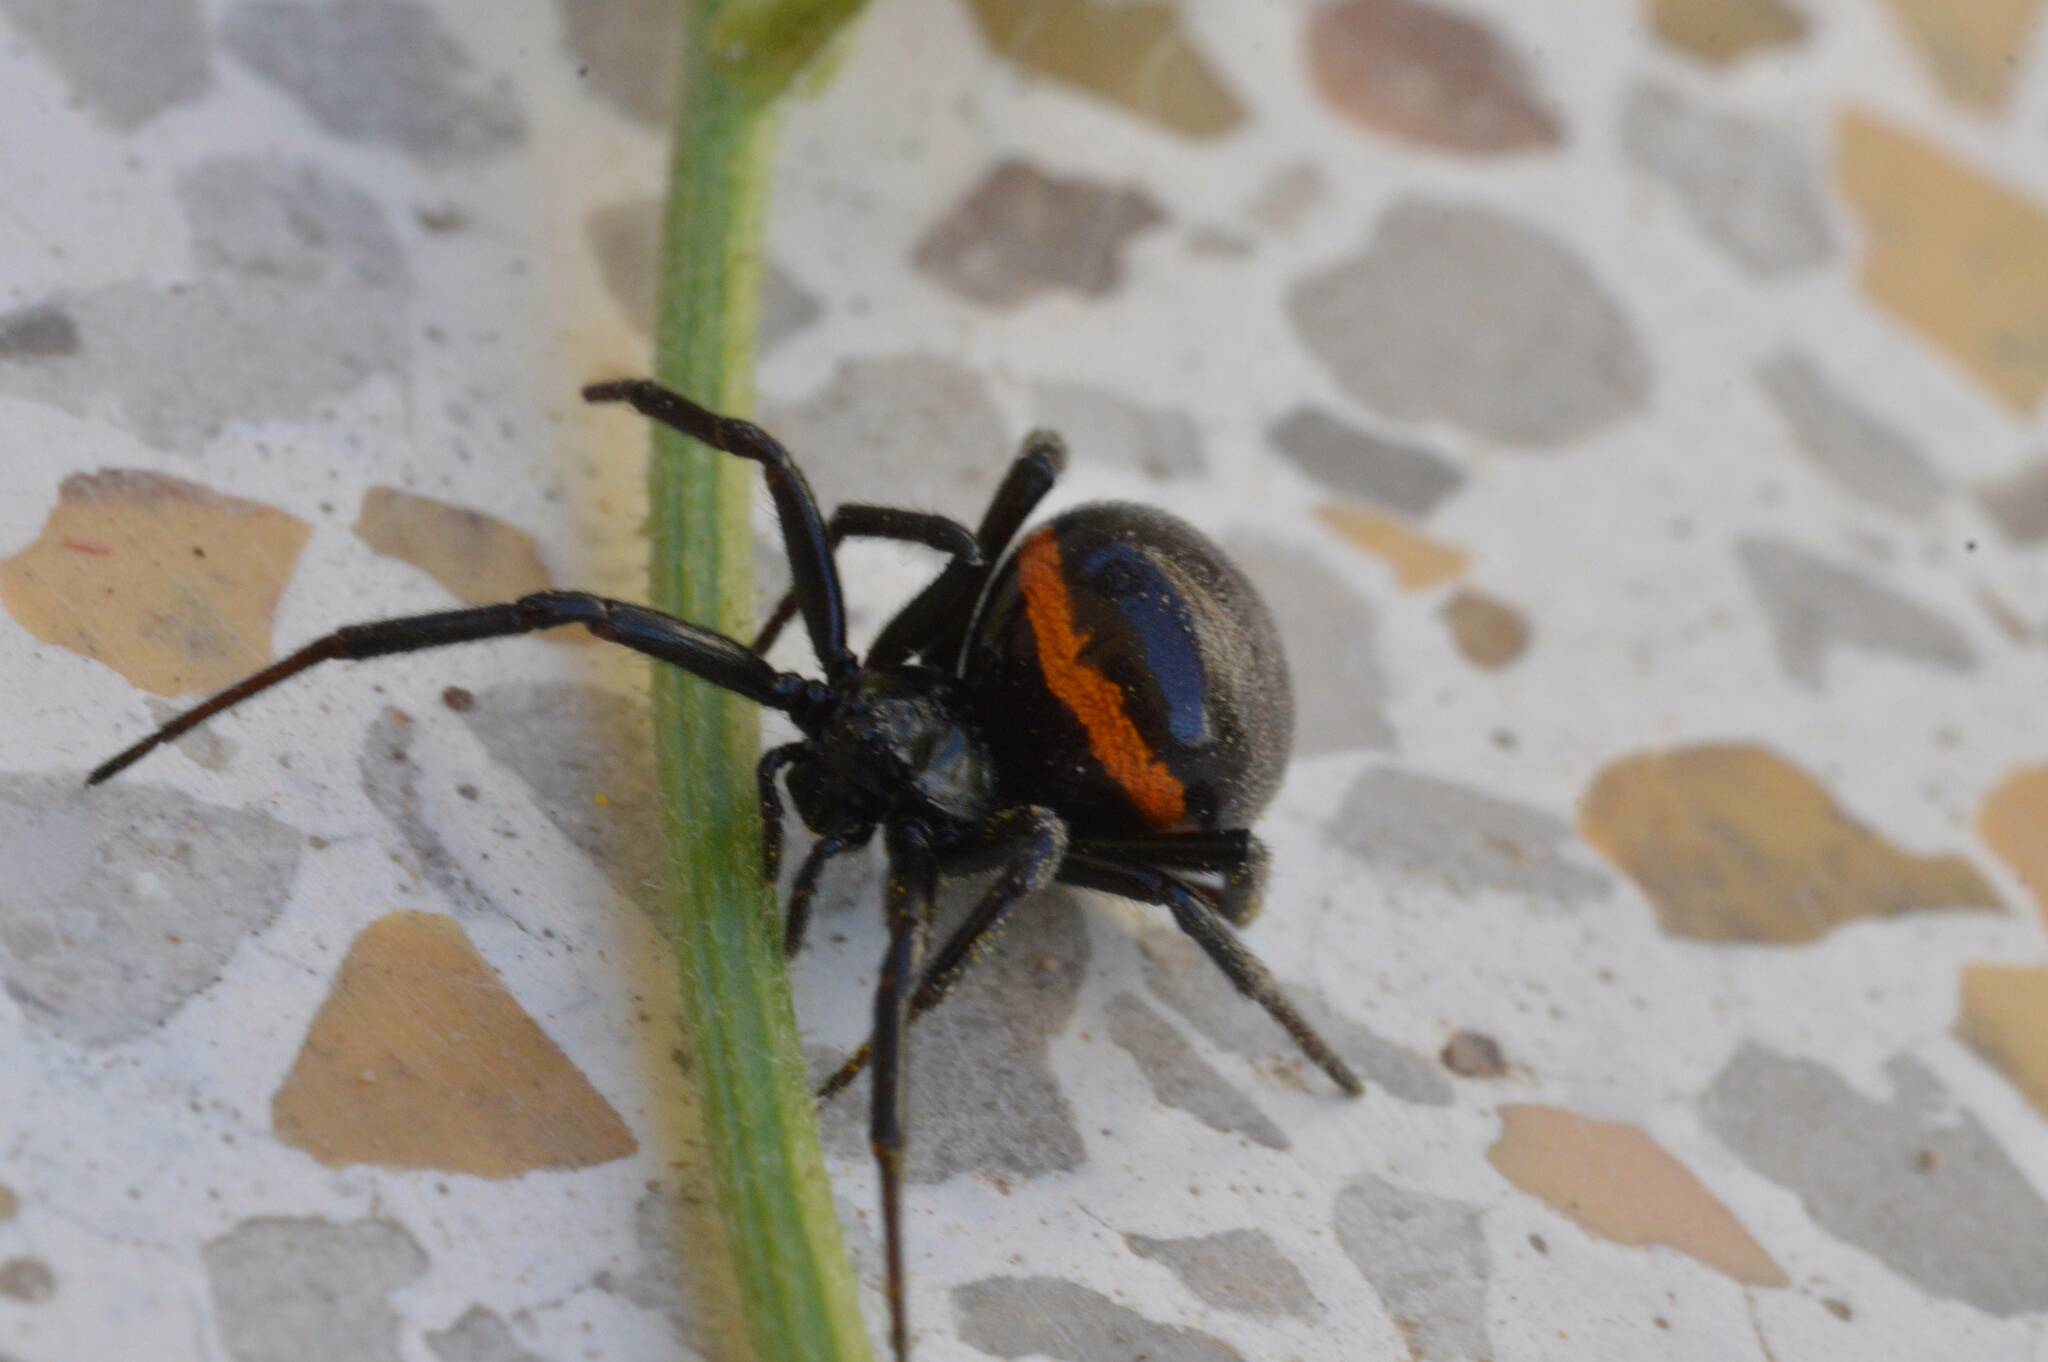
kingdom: Animalia
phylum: Arthropoda
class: Arachnida
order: Araneae
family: Theridiidae
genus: Steatoda
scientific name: Steatoda paykulliana
